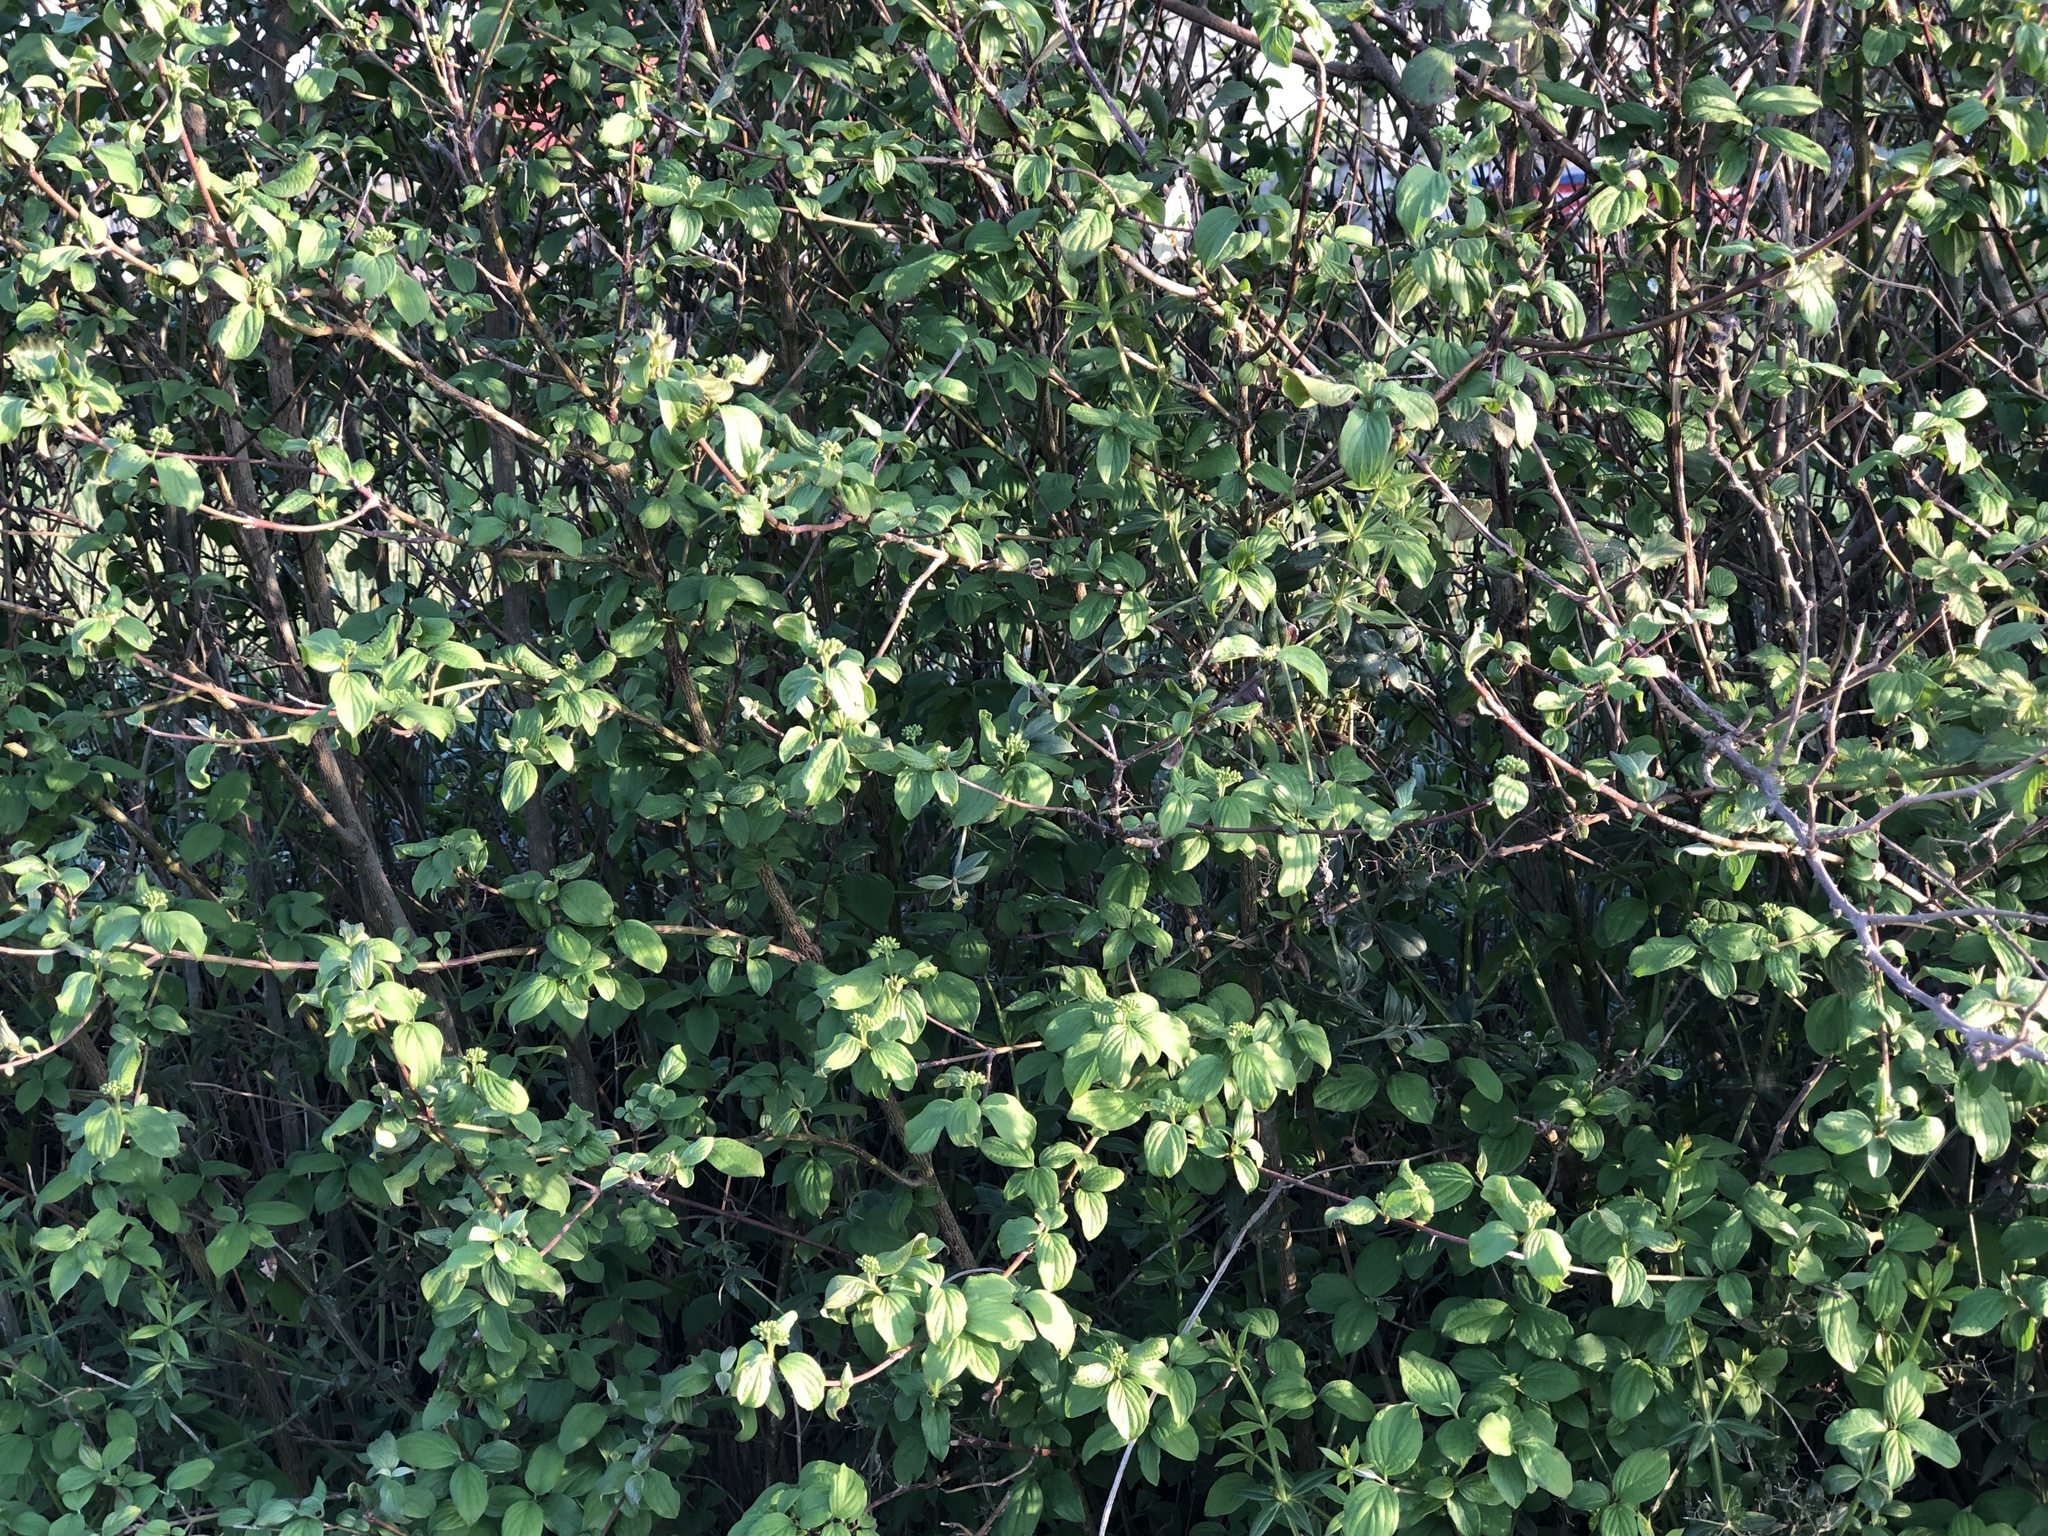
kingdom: Plantae
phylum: Tracheophyta
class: Magnoliopsida
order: Cornales
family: Cornaceae
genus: Cornus
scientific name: Cornus sanguinea
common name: Dogwood
